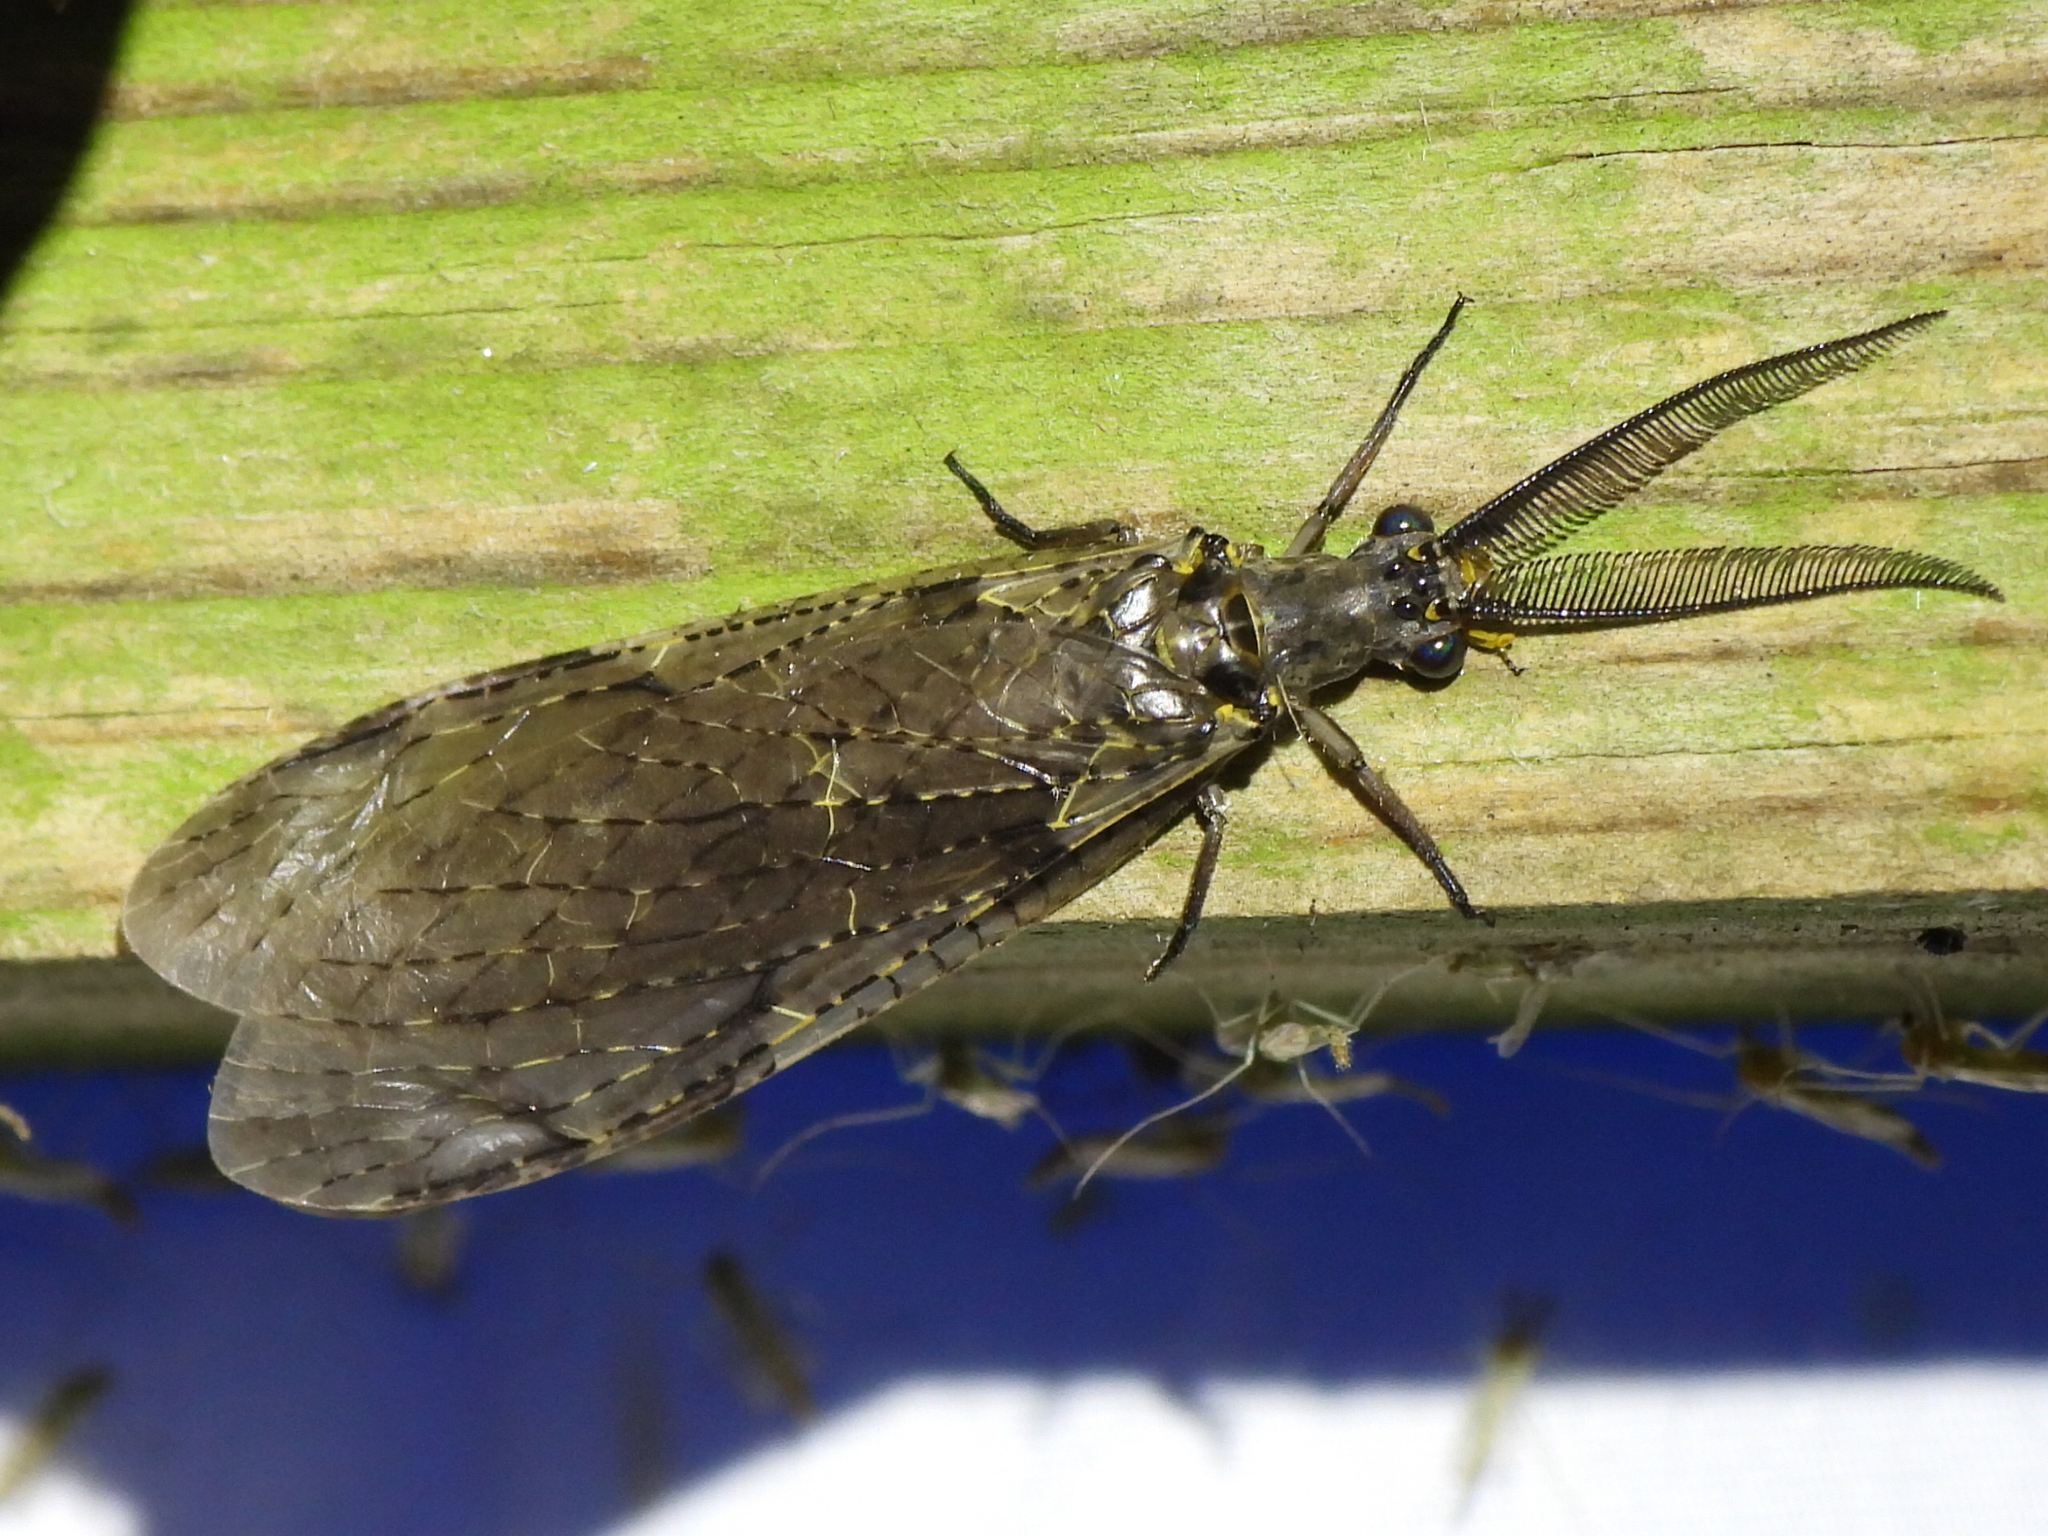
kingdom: Animalia
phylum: Arthropoda
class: Insecta
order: Megaloptera
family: Corydalidae
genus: Chauliodes
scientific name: Chauliodes rastricornis
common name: Spring fishfly
